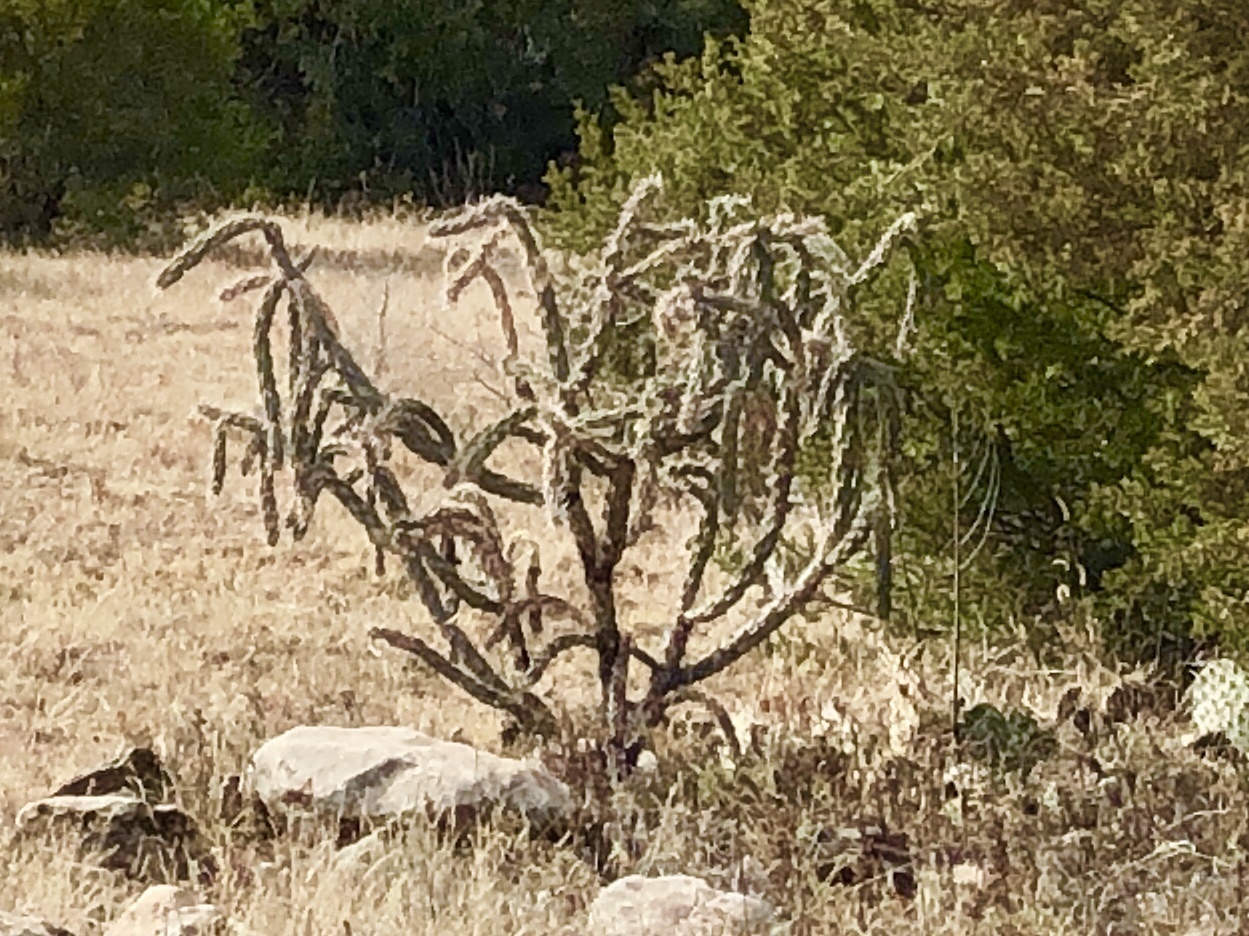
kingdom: Plantae
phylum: Tracheophyta
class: Magnoliopsida
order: Caryophyllales
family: Cactaceae
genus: Cylindropuntia
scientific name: Cylindropuntia imbricata
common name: Candelabrum cactus
